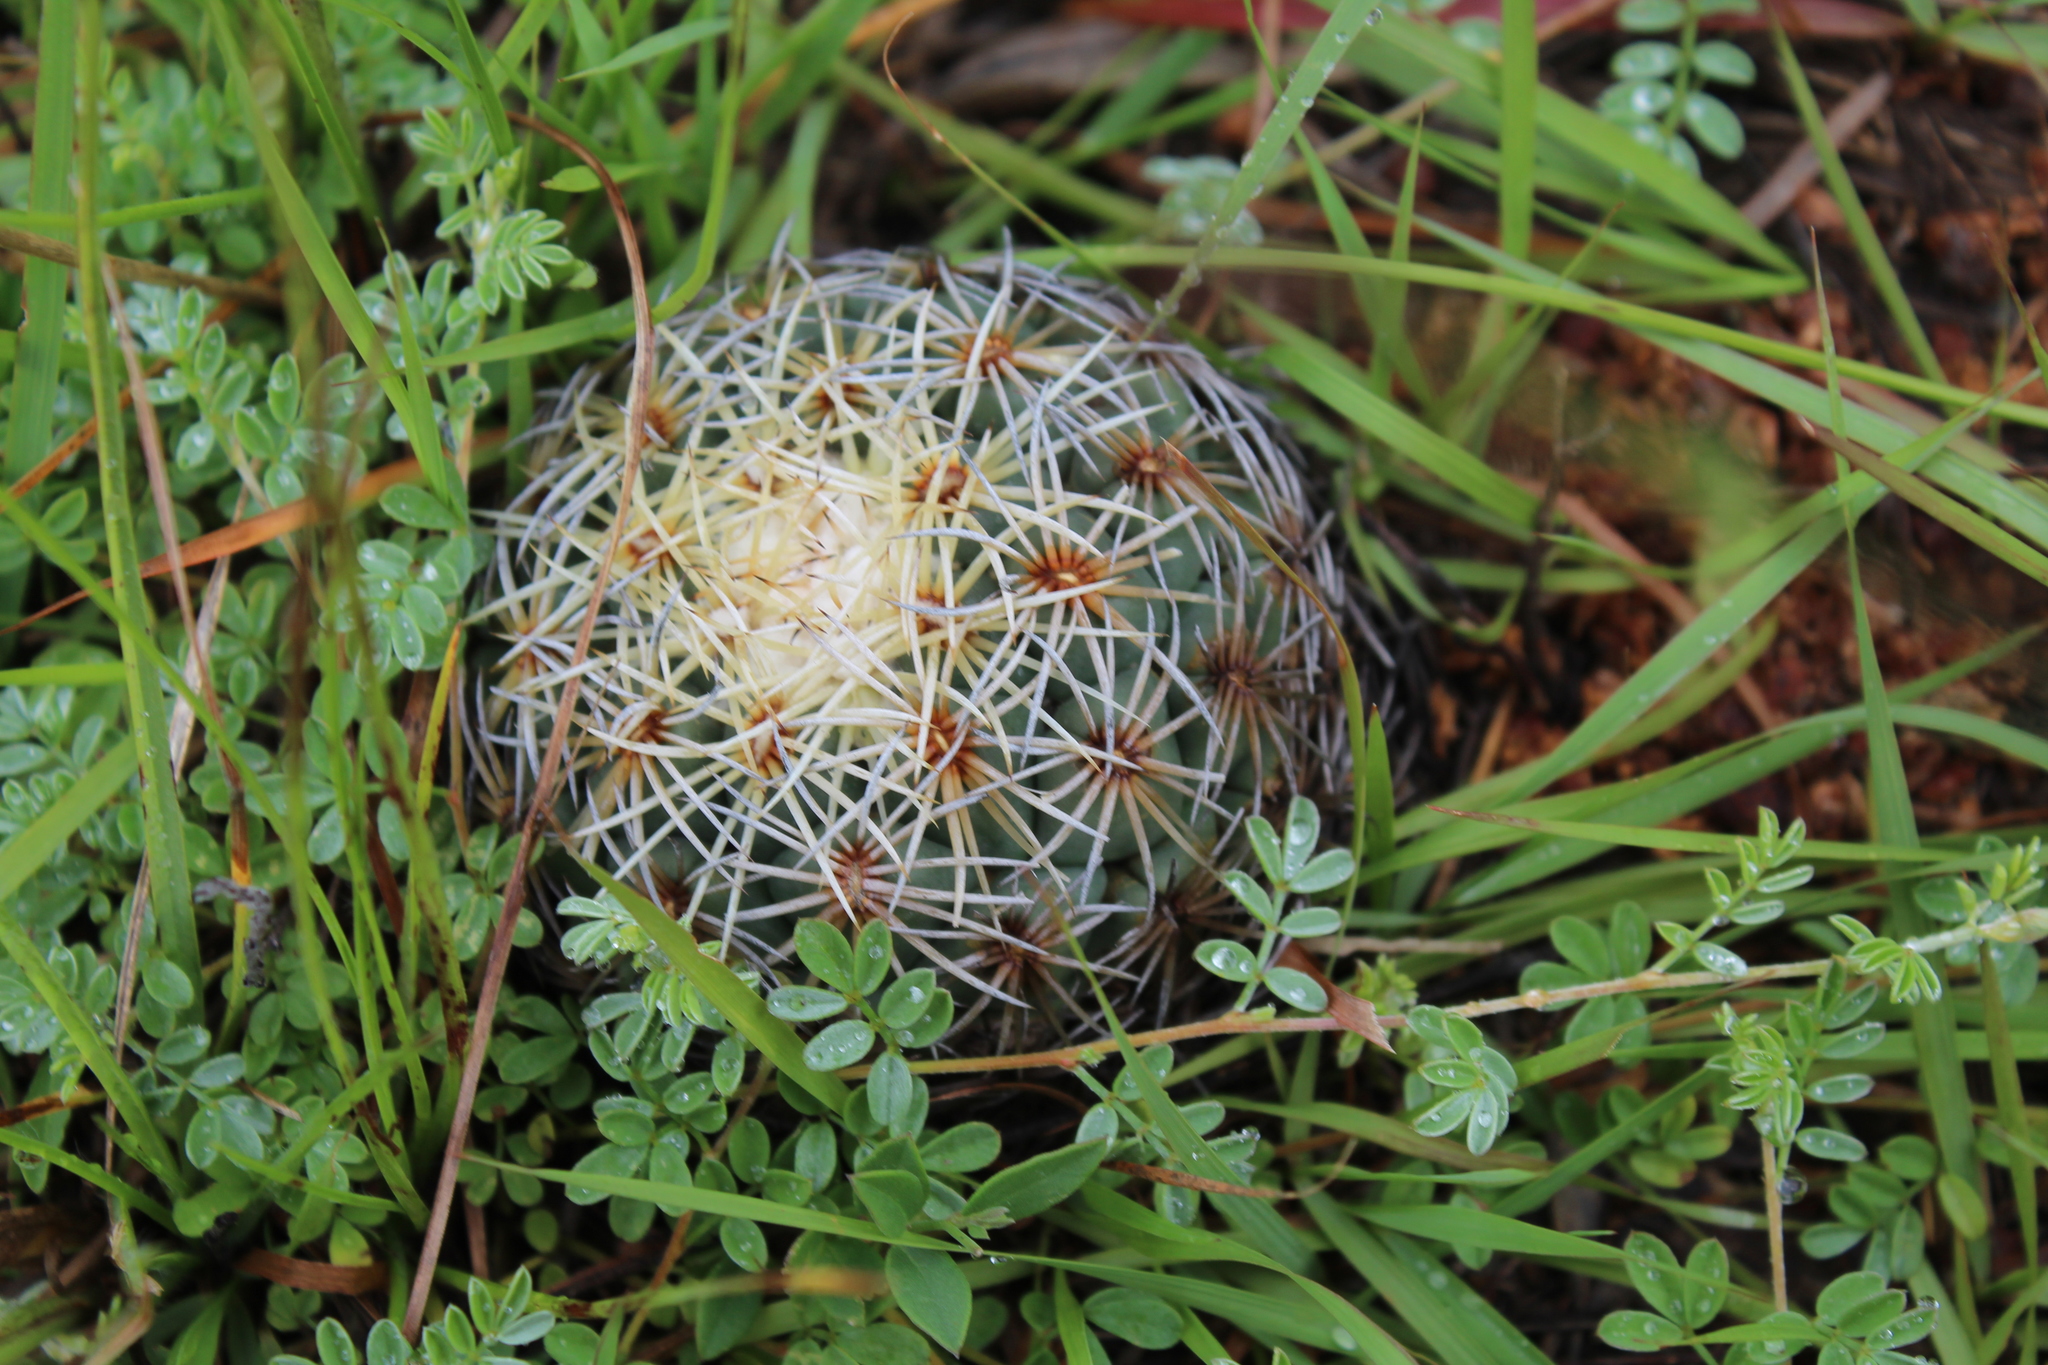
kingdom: Plantae
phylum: Tracheophyta
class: Magnoliopsida
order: Caryophyllales
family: Cactaceae
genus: Coryphantha
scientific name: Coryphantha pallida
